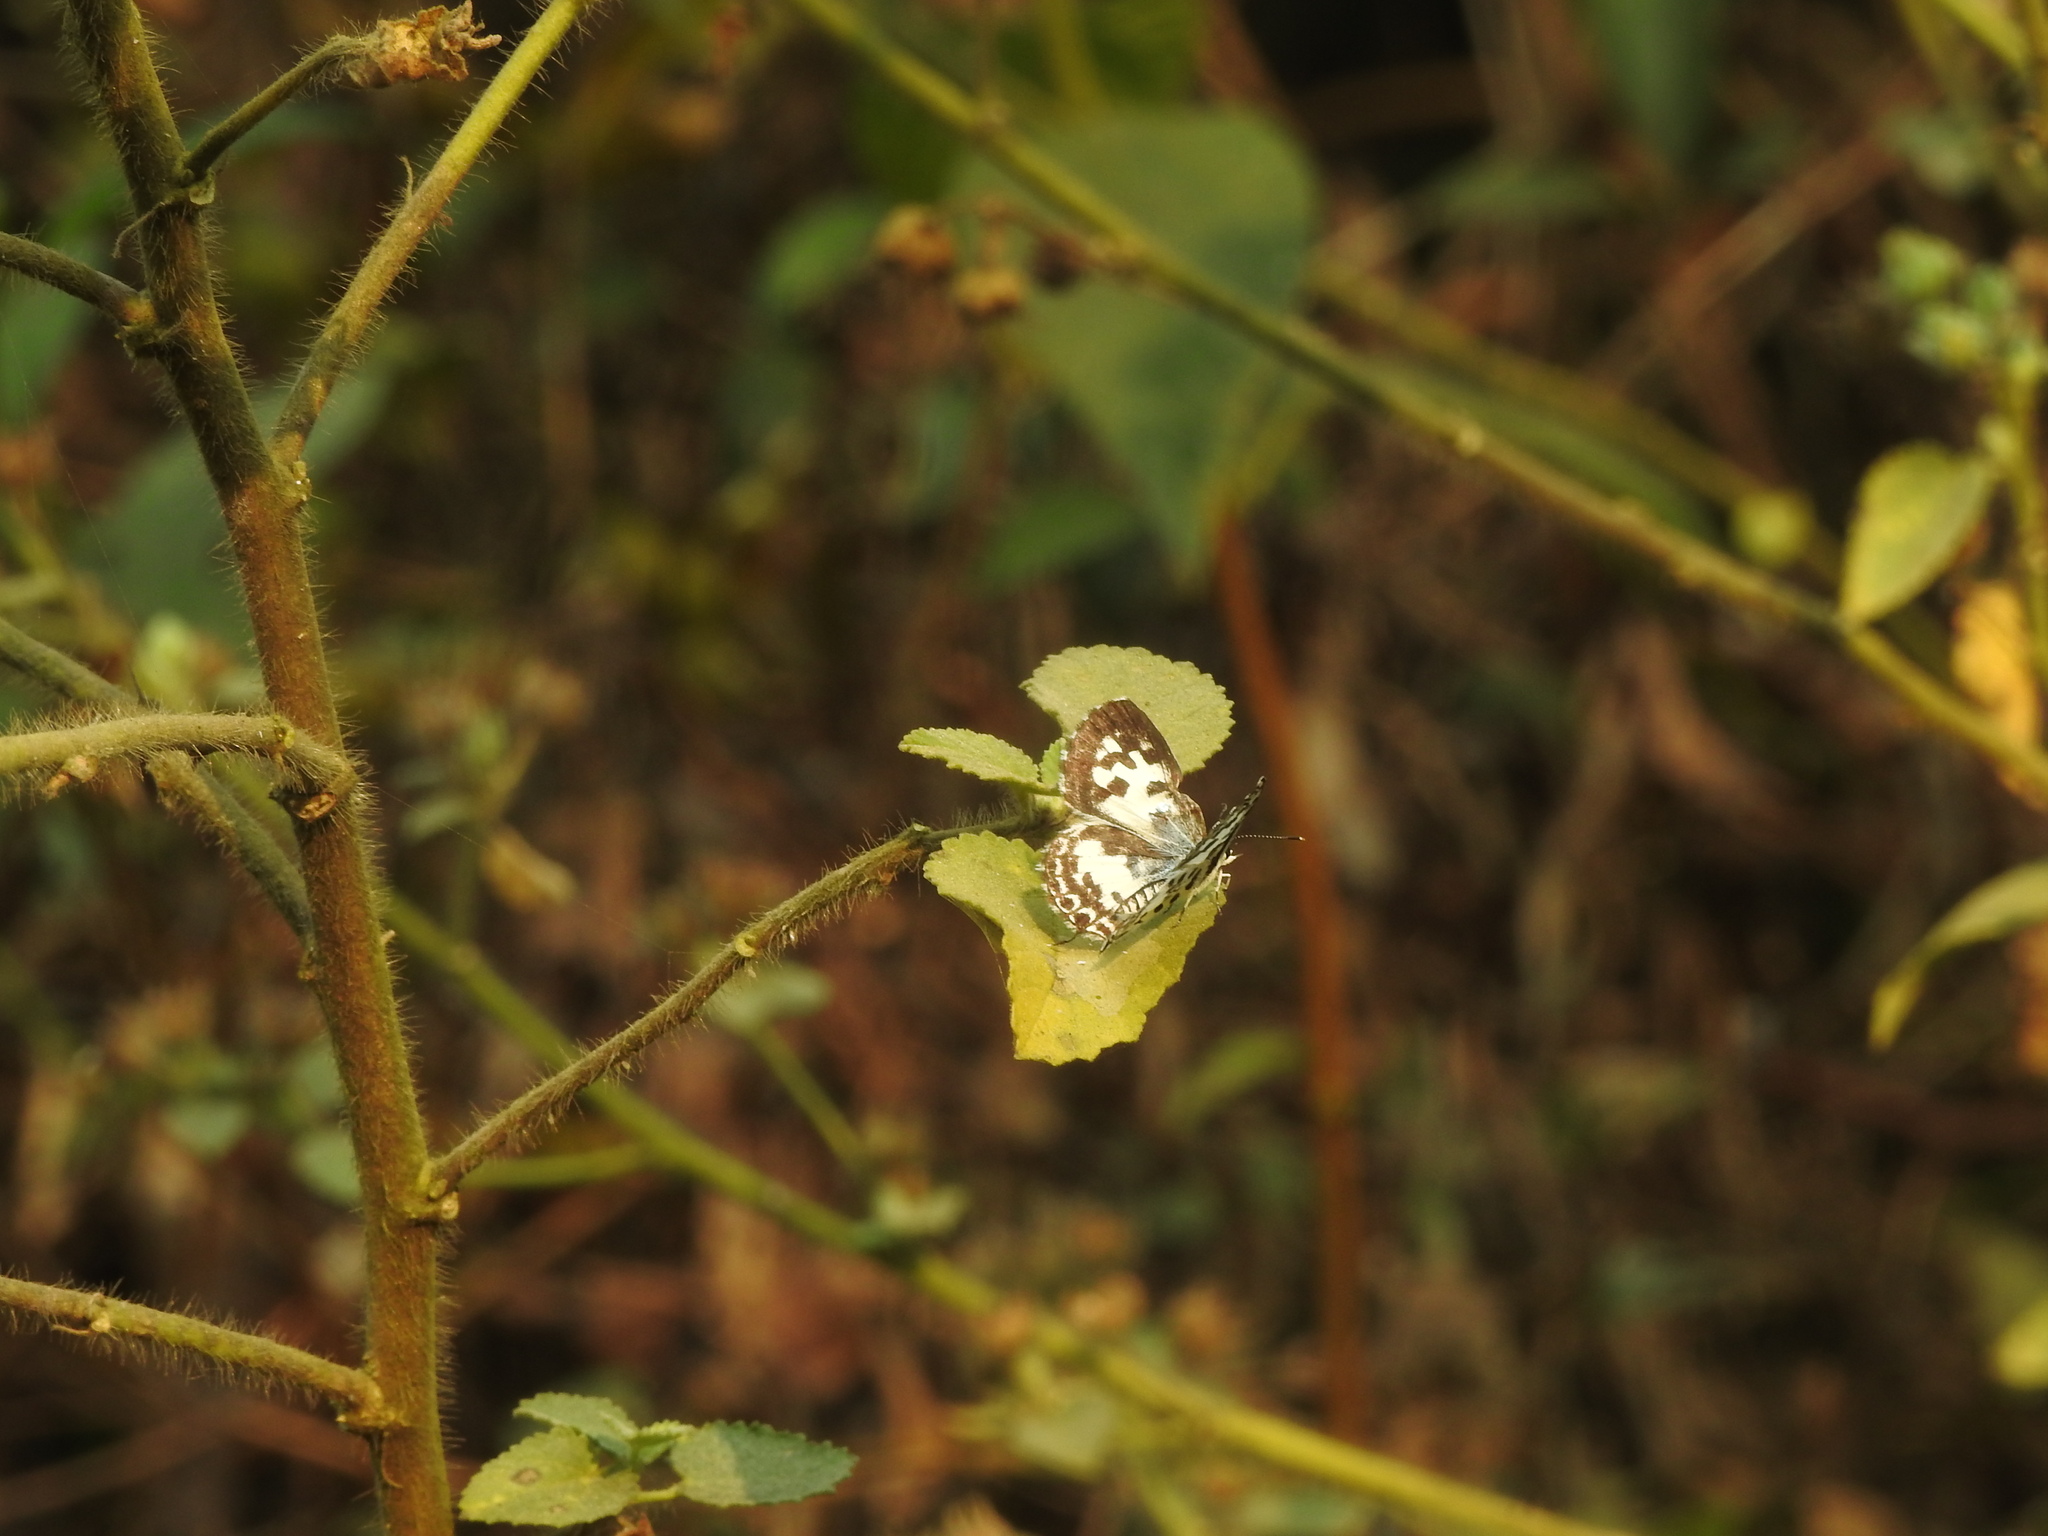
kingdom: Animalia
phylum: Arthropoda
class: Insecta
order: Lepidoptera
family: Lycaenidae
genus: Castalius
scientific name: Castalius rosimon
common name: Common pierrot
